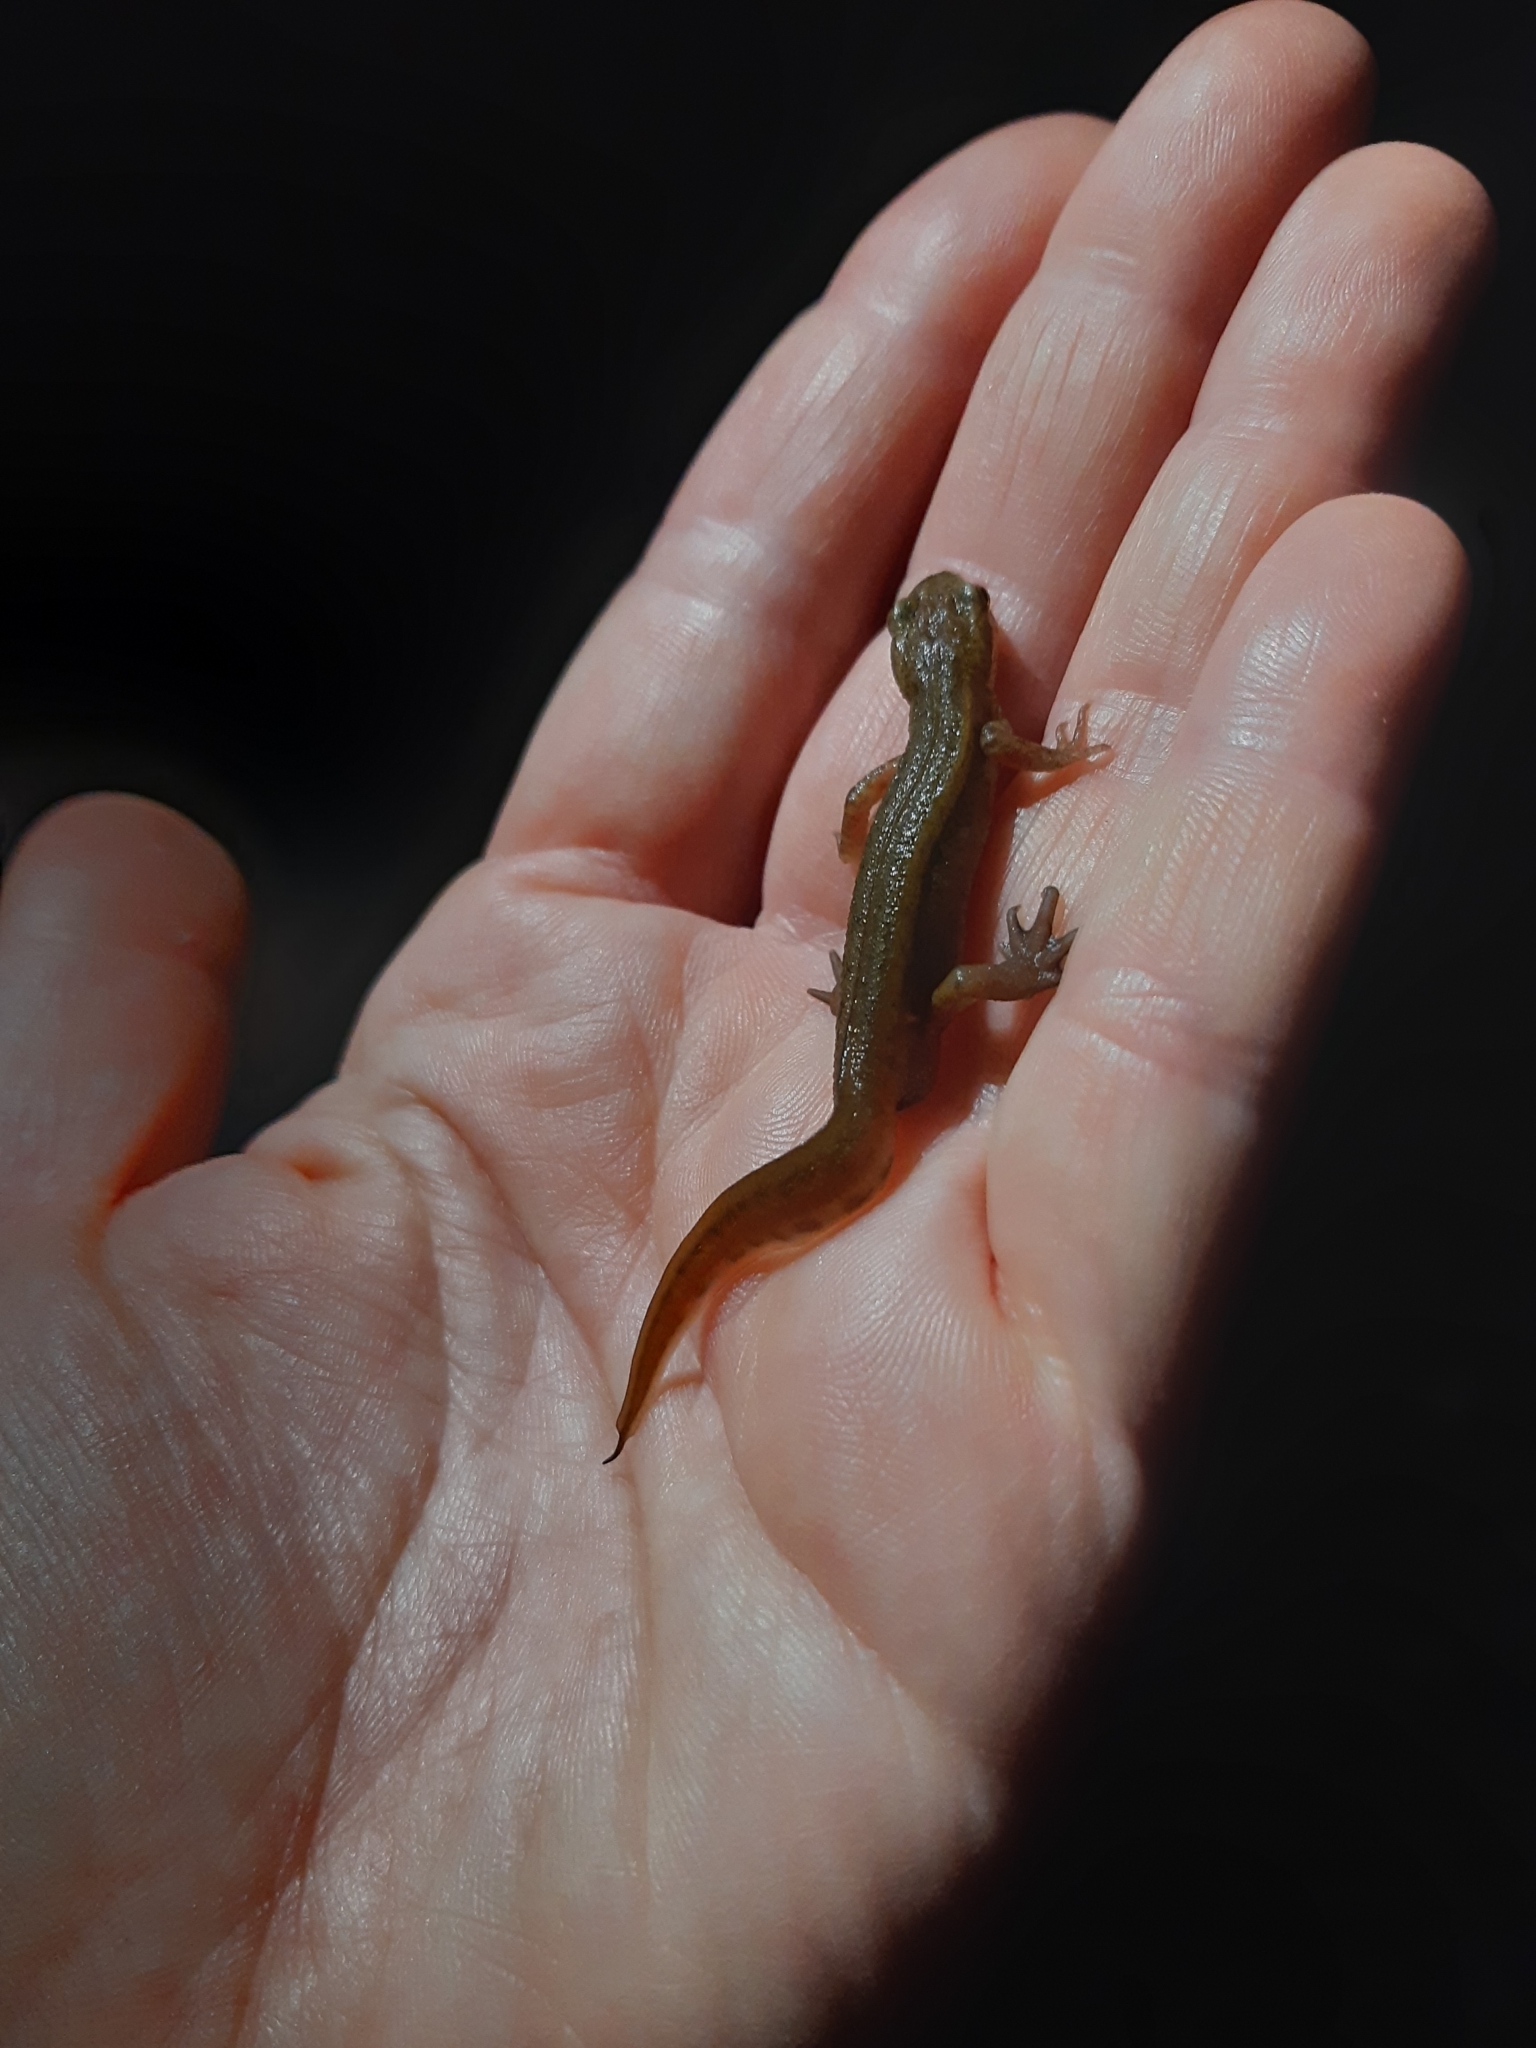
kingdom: Animalia
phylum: Chordata
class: Amphibia
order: Caudata
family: Salamandridae
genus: Lissotriton
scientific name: Lissotriton helveticus
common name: Palmate newt
